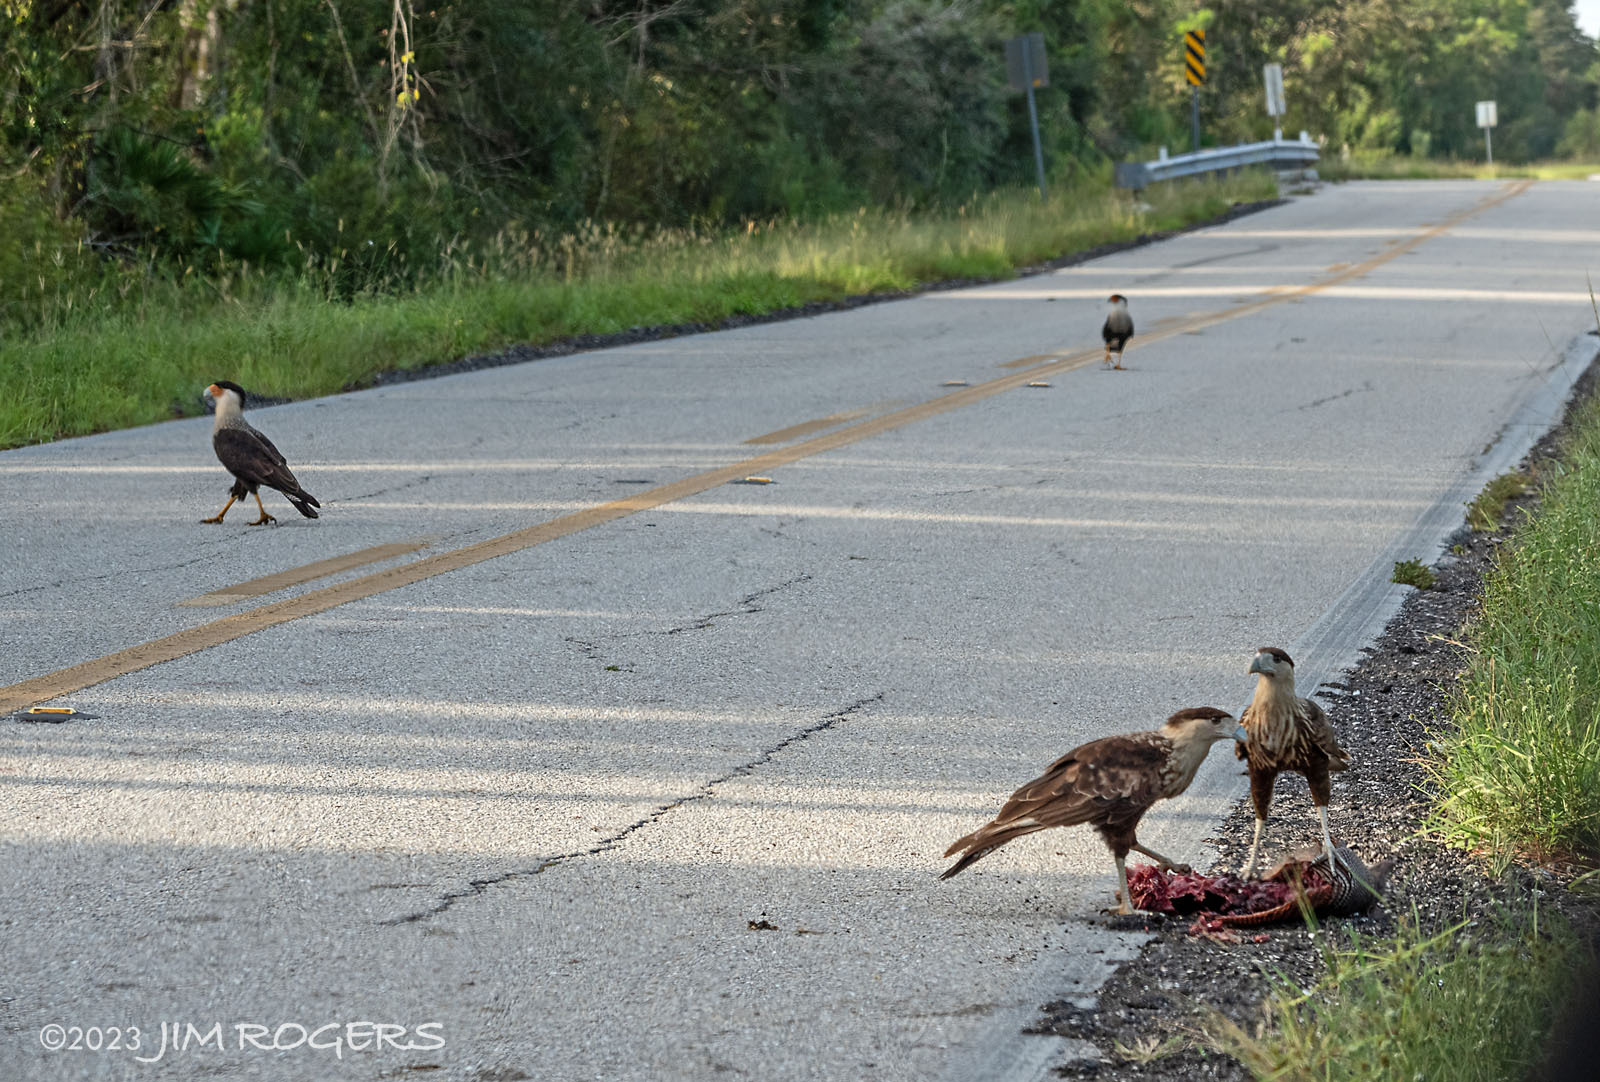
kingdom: Animalia
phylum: Chordata
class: Aves
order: Falconiformes
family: Falconidae
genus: Caracara
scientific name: Caracara plancus
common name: Southern caracara
